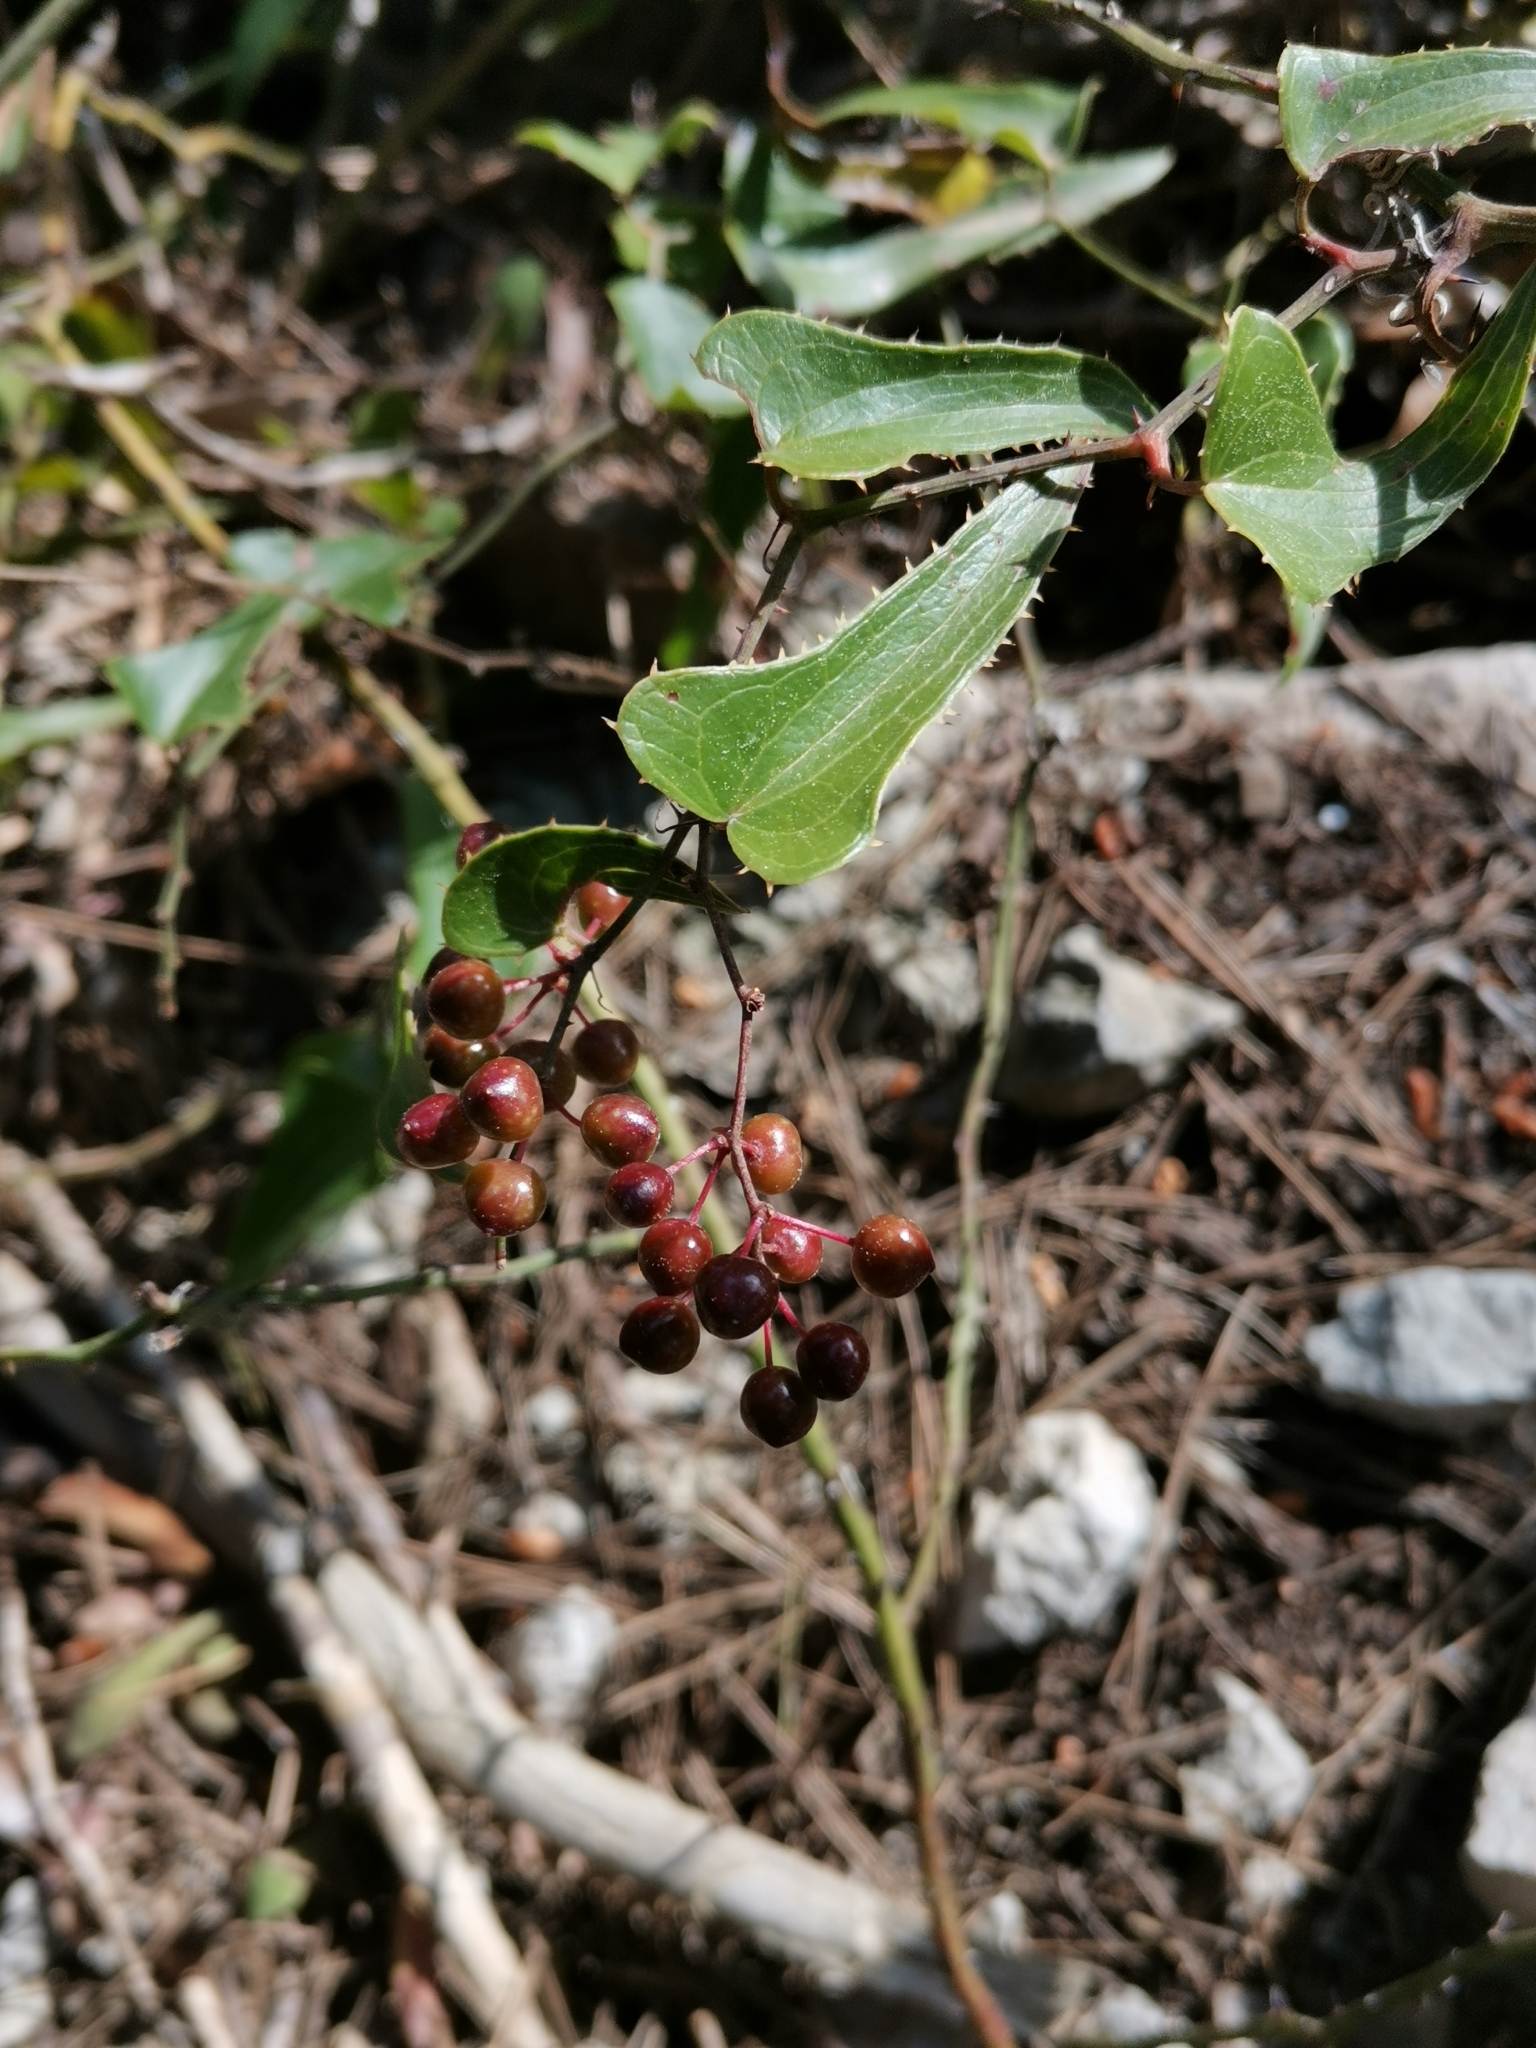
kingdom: Plantae
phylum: Tracheophyta
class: Liliopsida
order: Liliales
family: Smilacaceae
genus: Smilax
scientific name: Smilax aspera
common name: Common smilax
